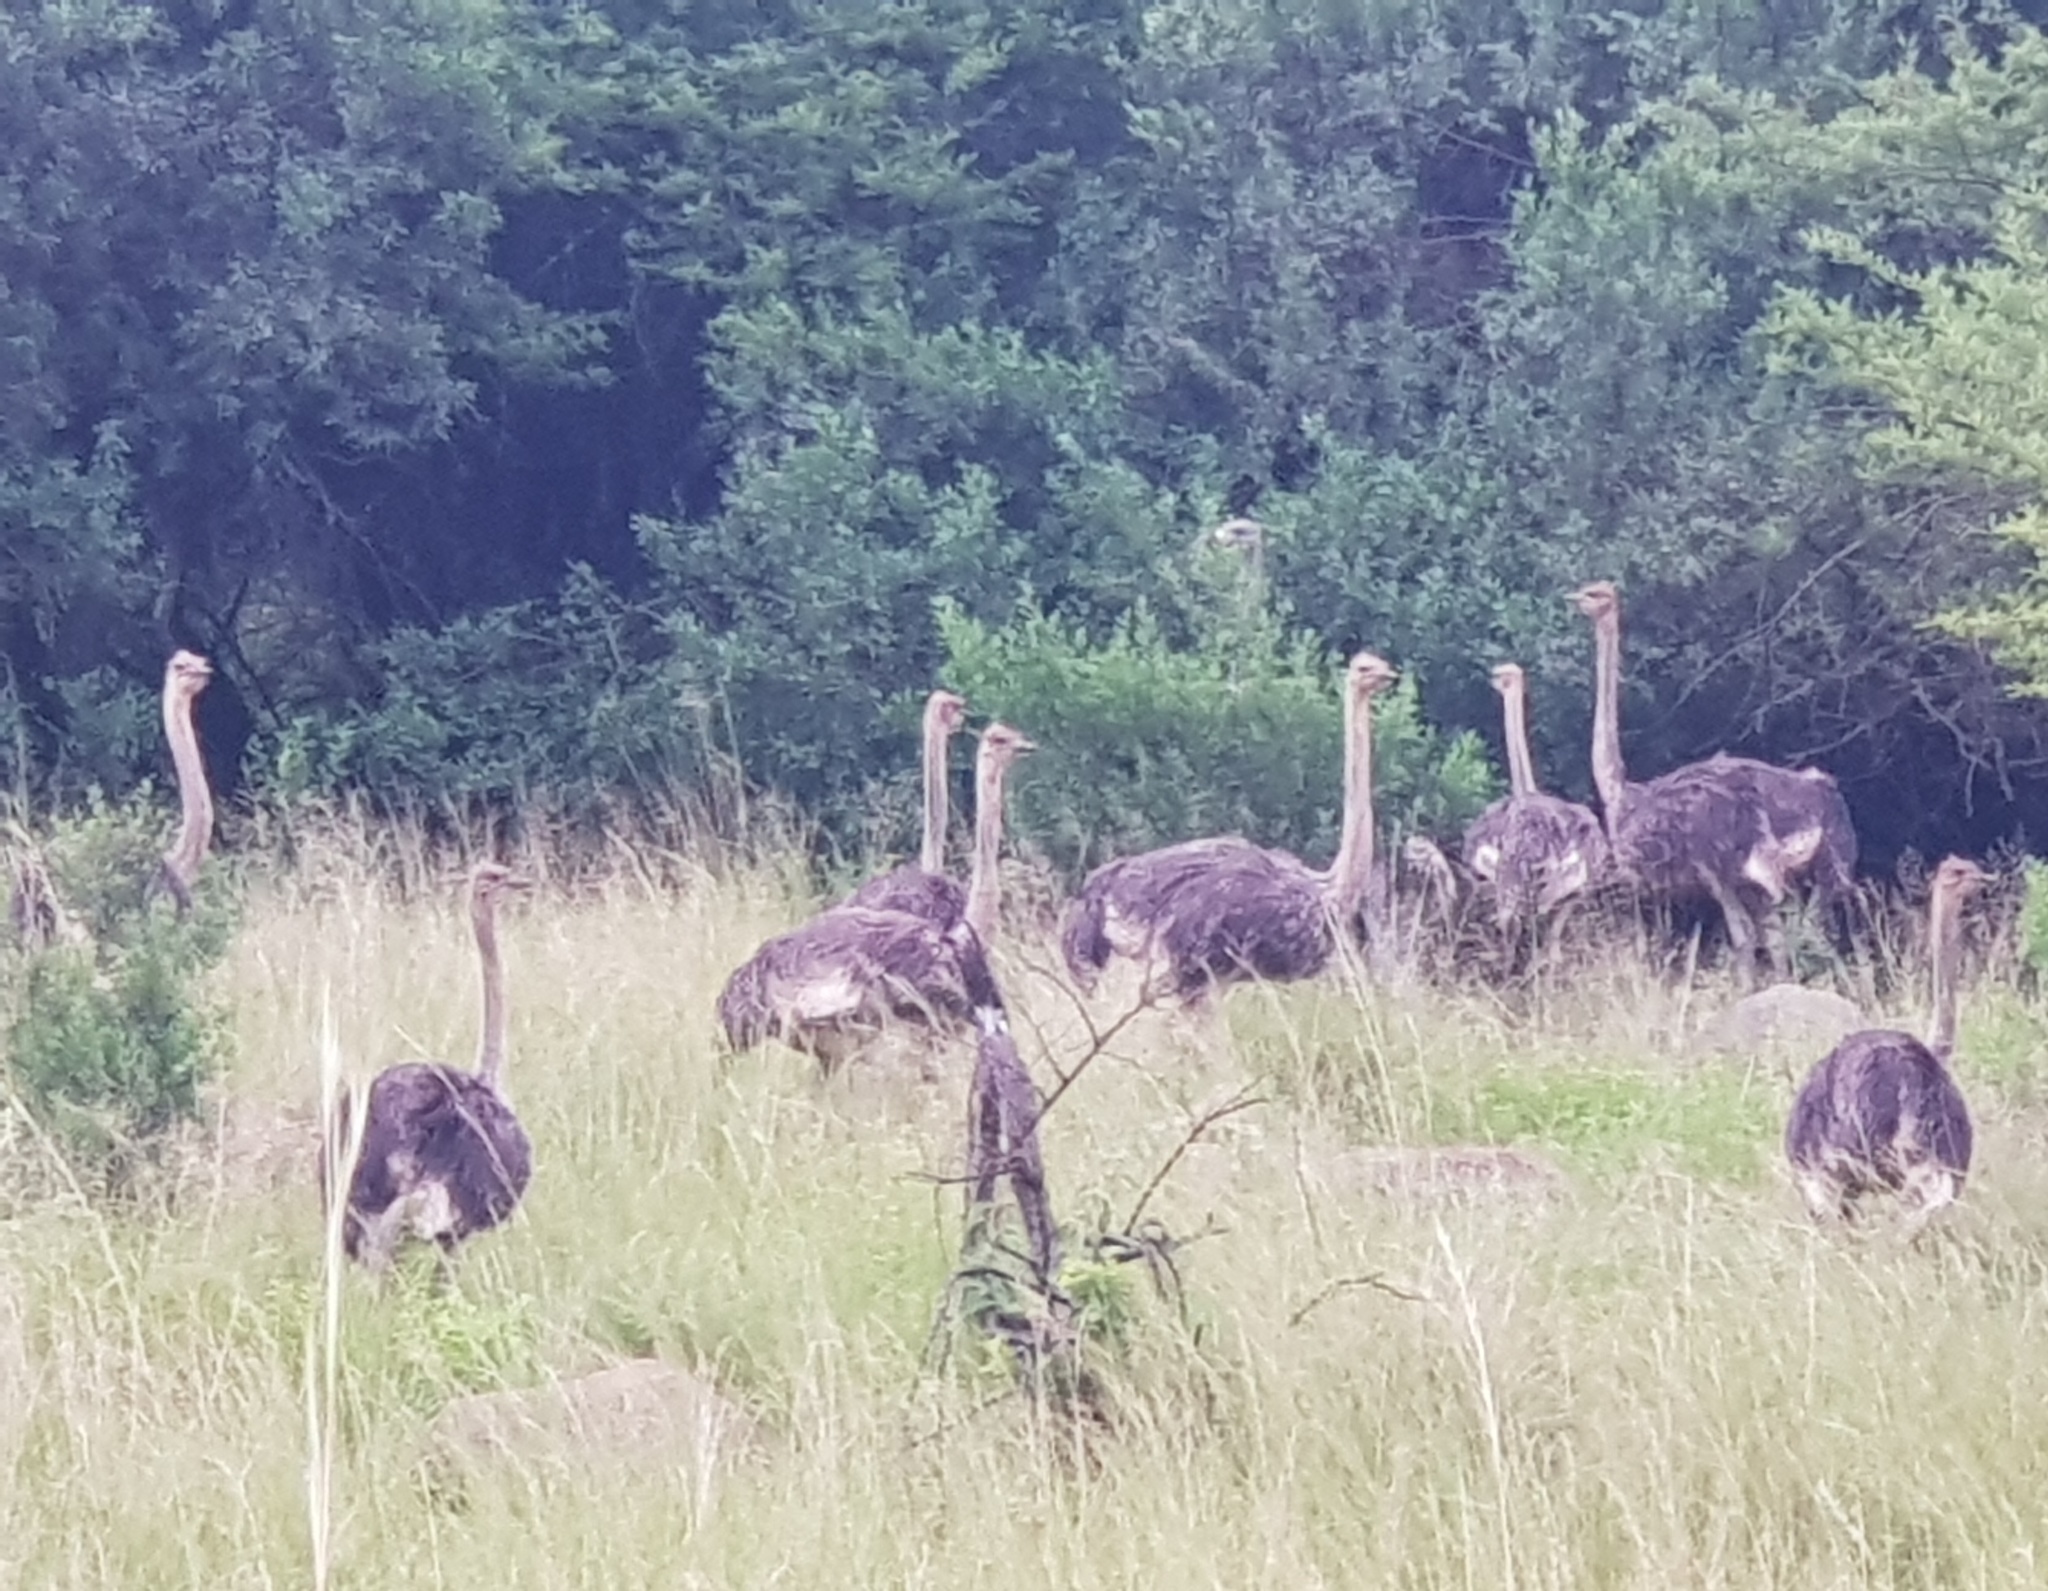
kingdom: Animalia
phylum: Chordata
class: Aves
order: Struthioniformes
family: Struthionidae
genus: Struthio
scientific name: Struthio camelus
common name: Common ostrich
